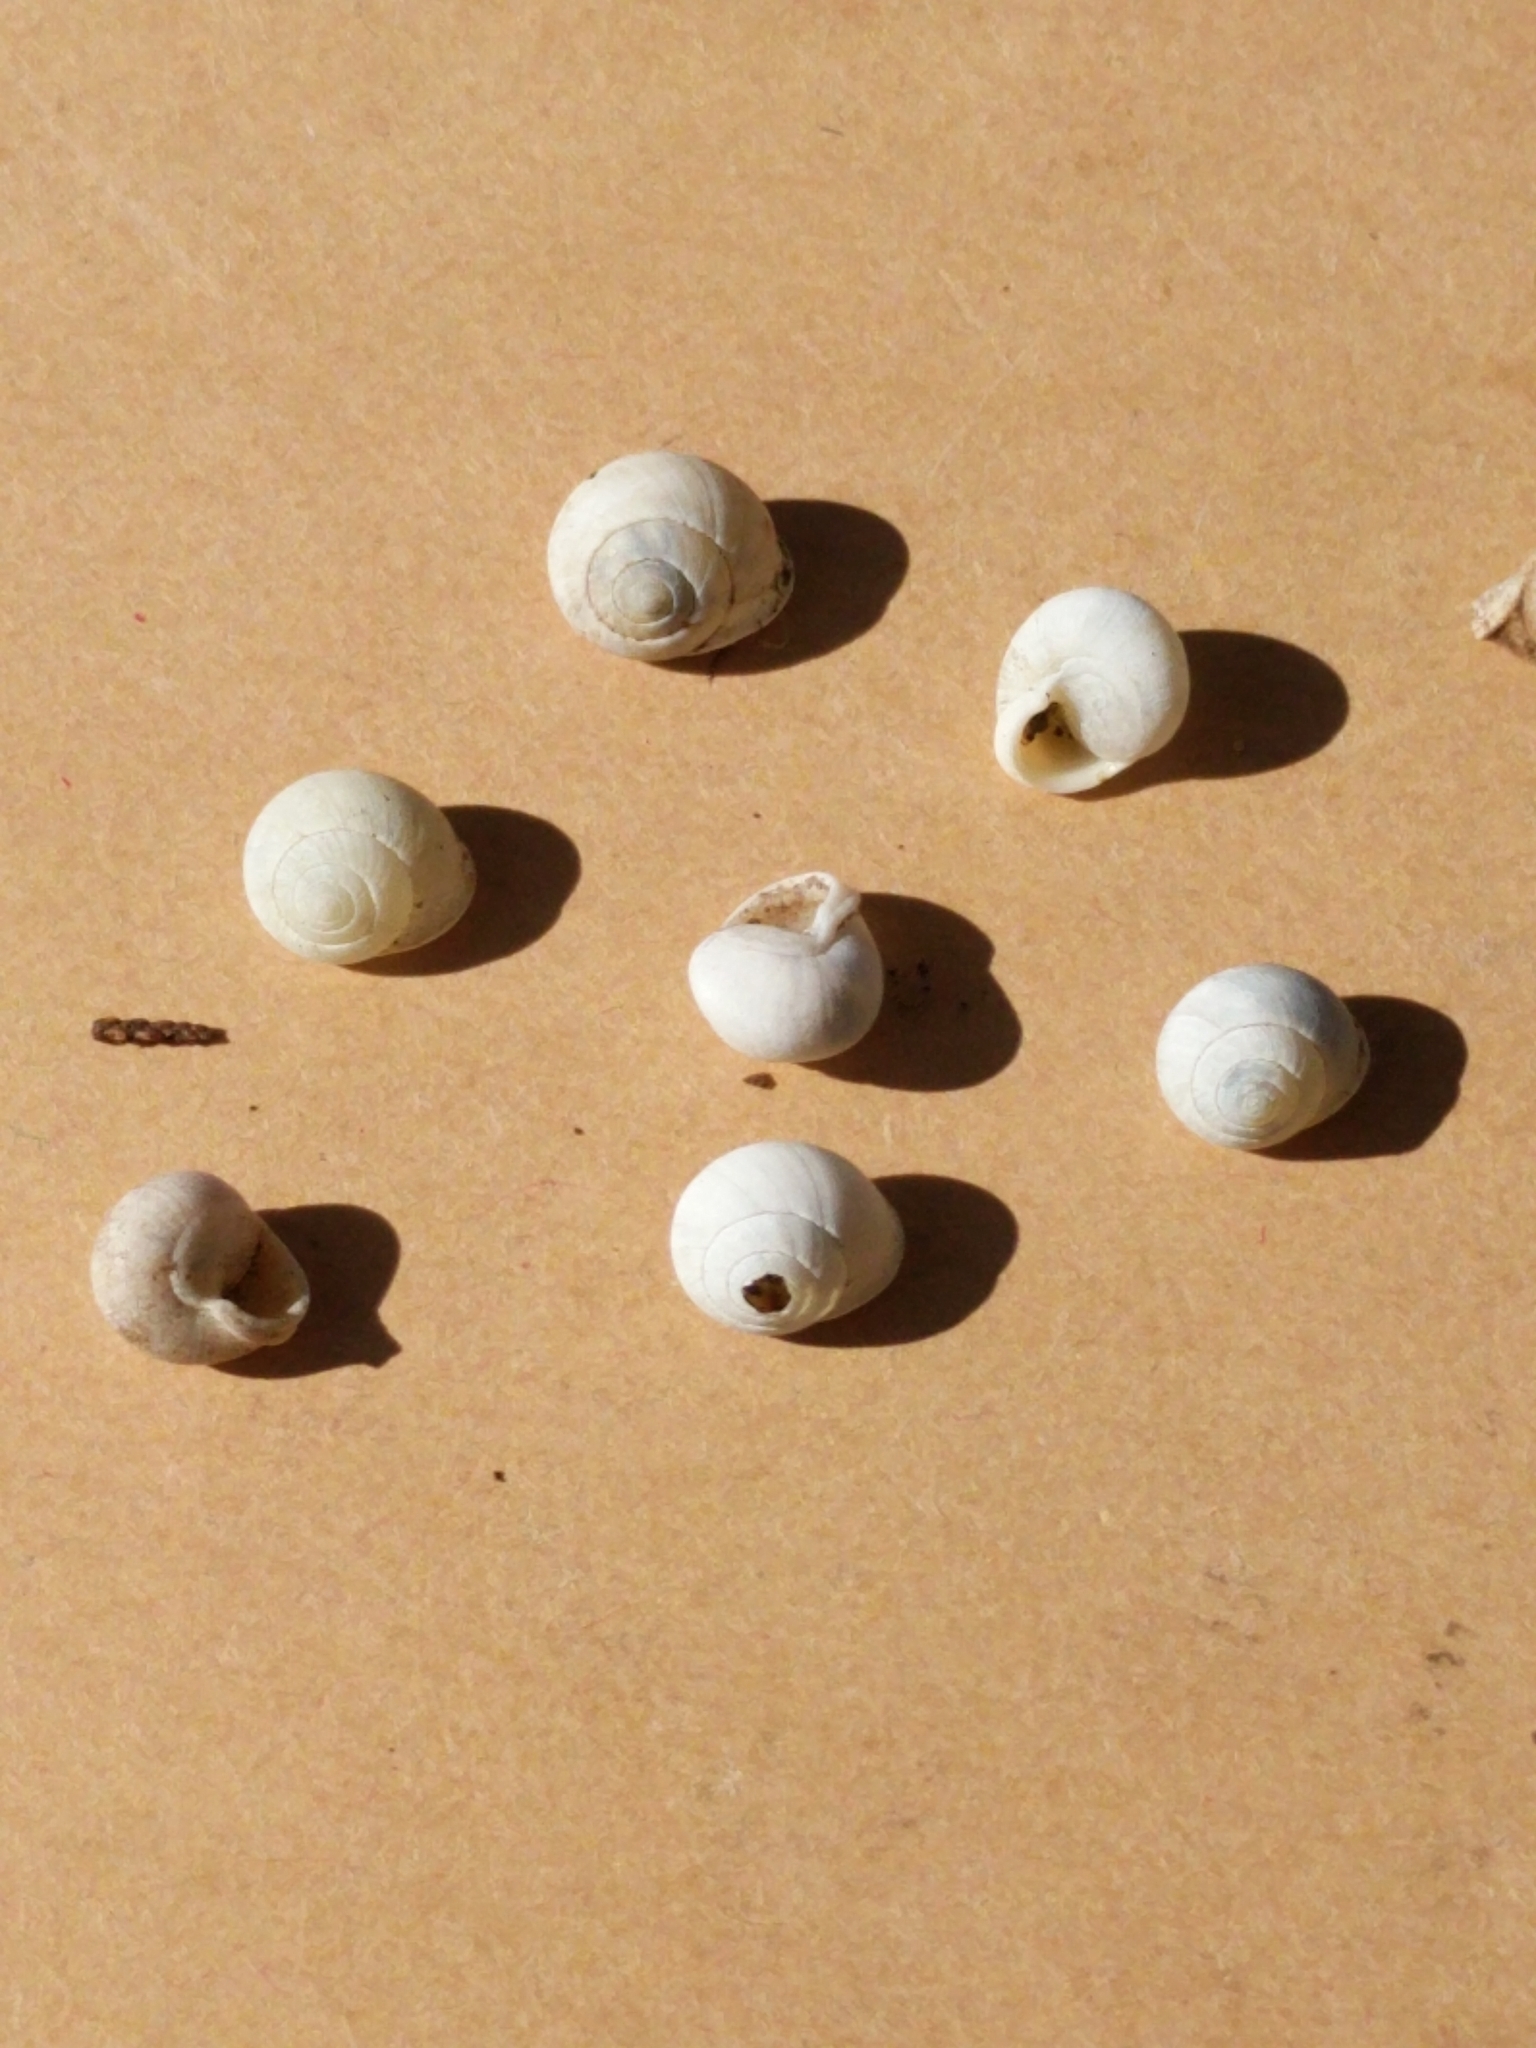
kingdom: Animalia
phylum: Mollusca
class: Gastropoda
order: Cycloneritida
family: Helicinidae
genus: Helicina
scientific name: Helicina orbiculata
